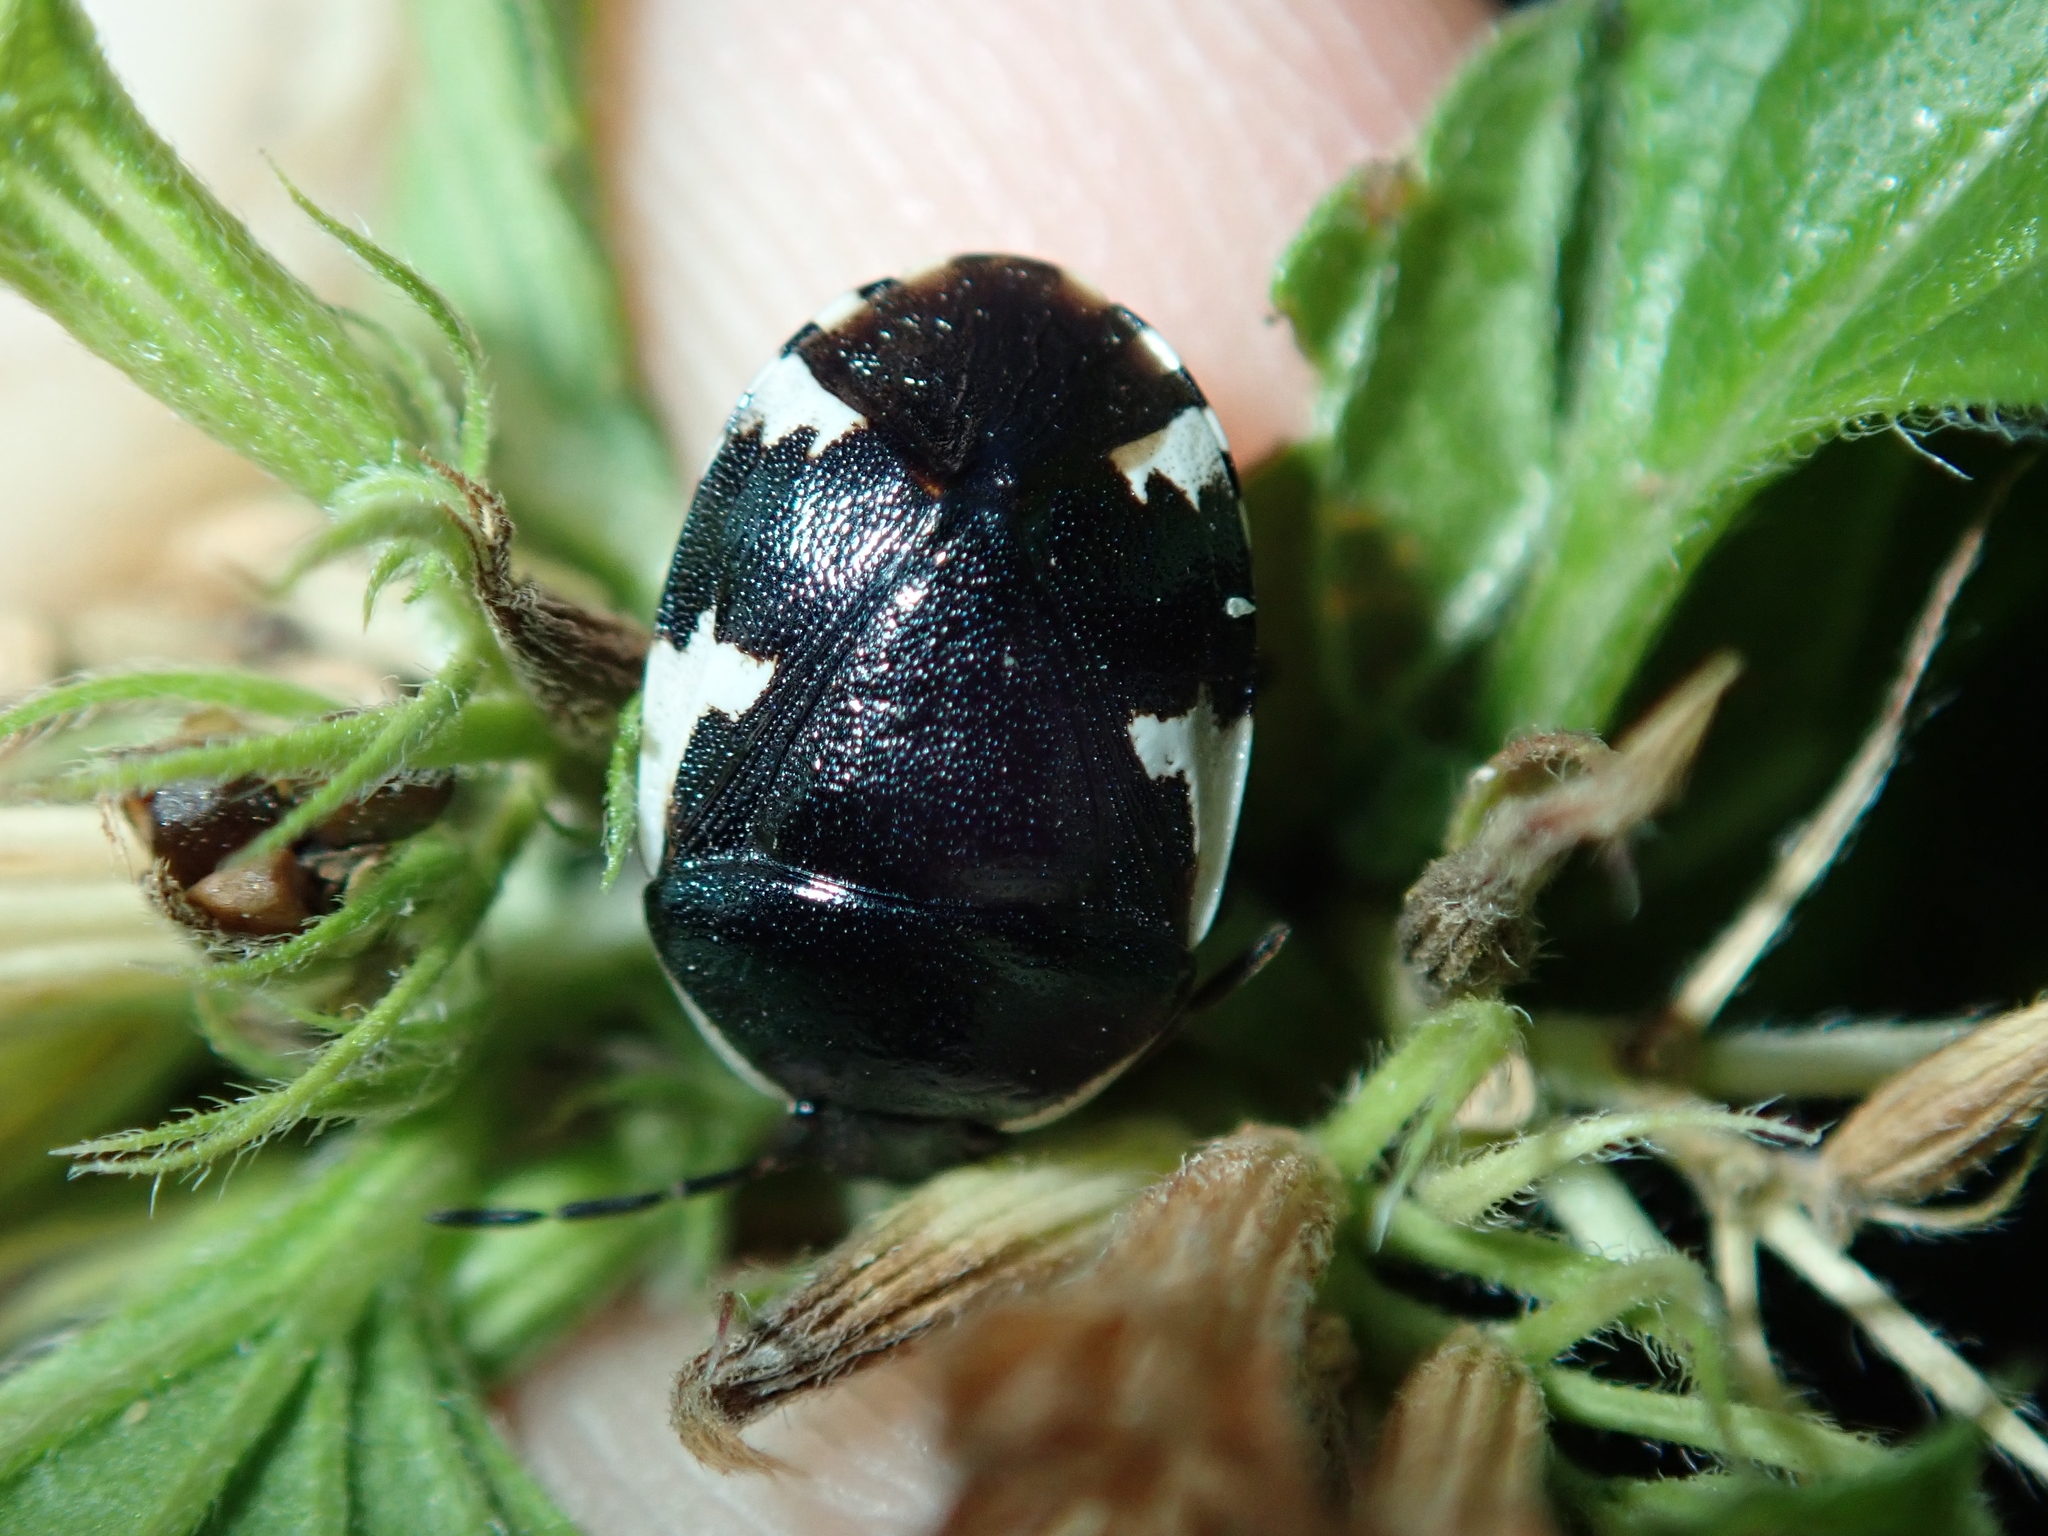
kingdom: Animalia
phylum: Arthropoda
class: Insecta
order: Hemiptera
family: Cydnidae
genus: Tritomegas
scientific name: Tritomegas sexmaculatus
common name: Rambur's pied shieldbug
